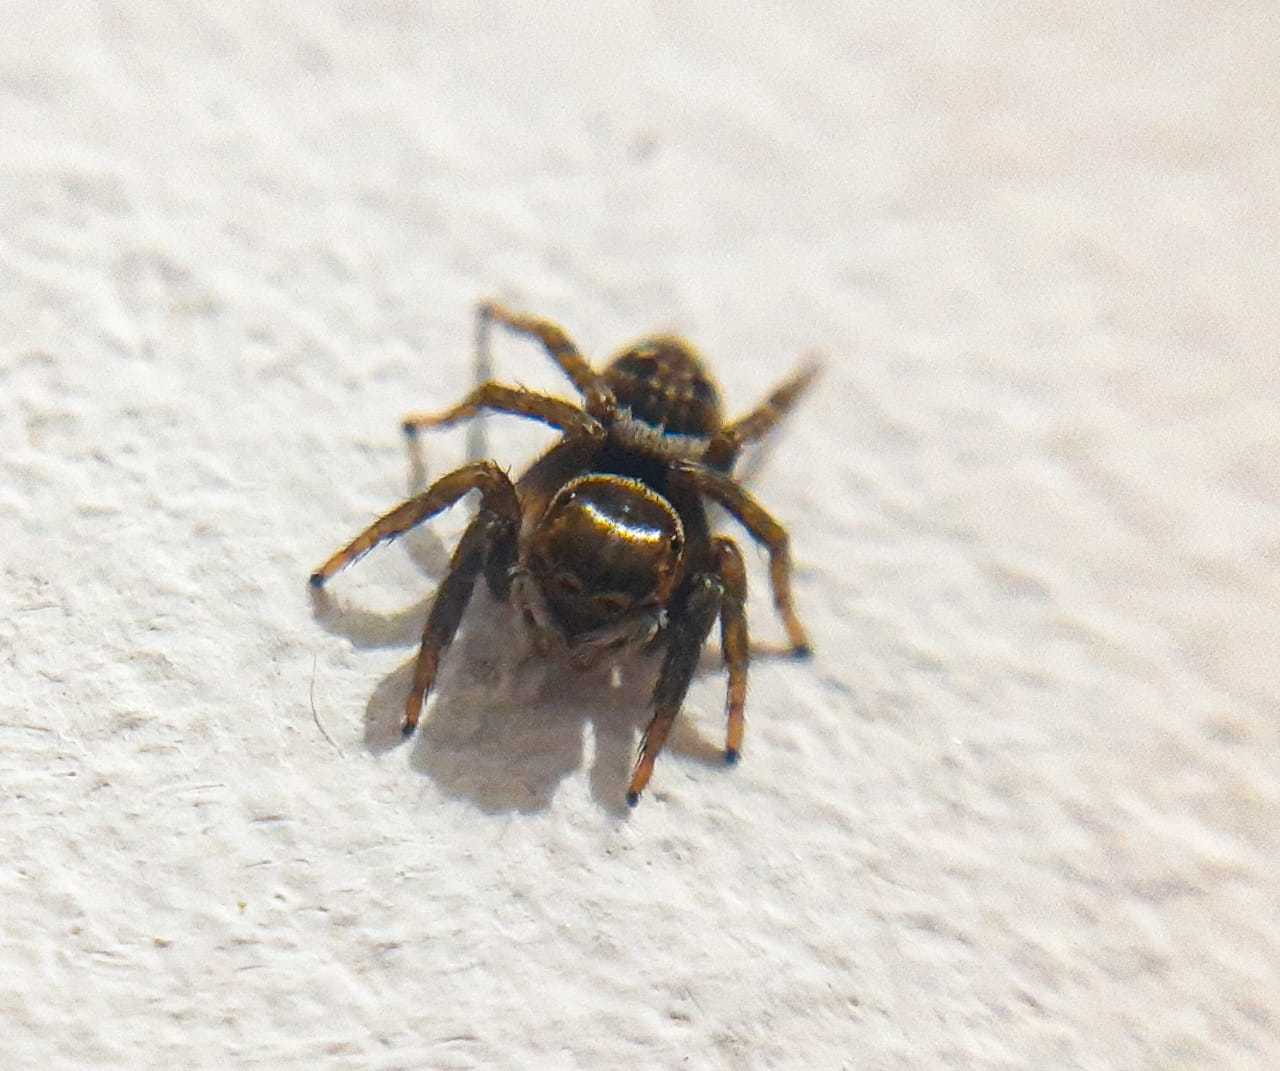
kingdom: Animalia
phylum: Arthropoda
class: Arachnida
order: Araneae
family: Salticidae
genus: Hasarius
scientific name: Hasarius adansoni
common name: Jumping spider
